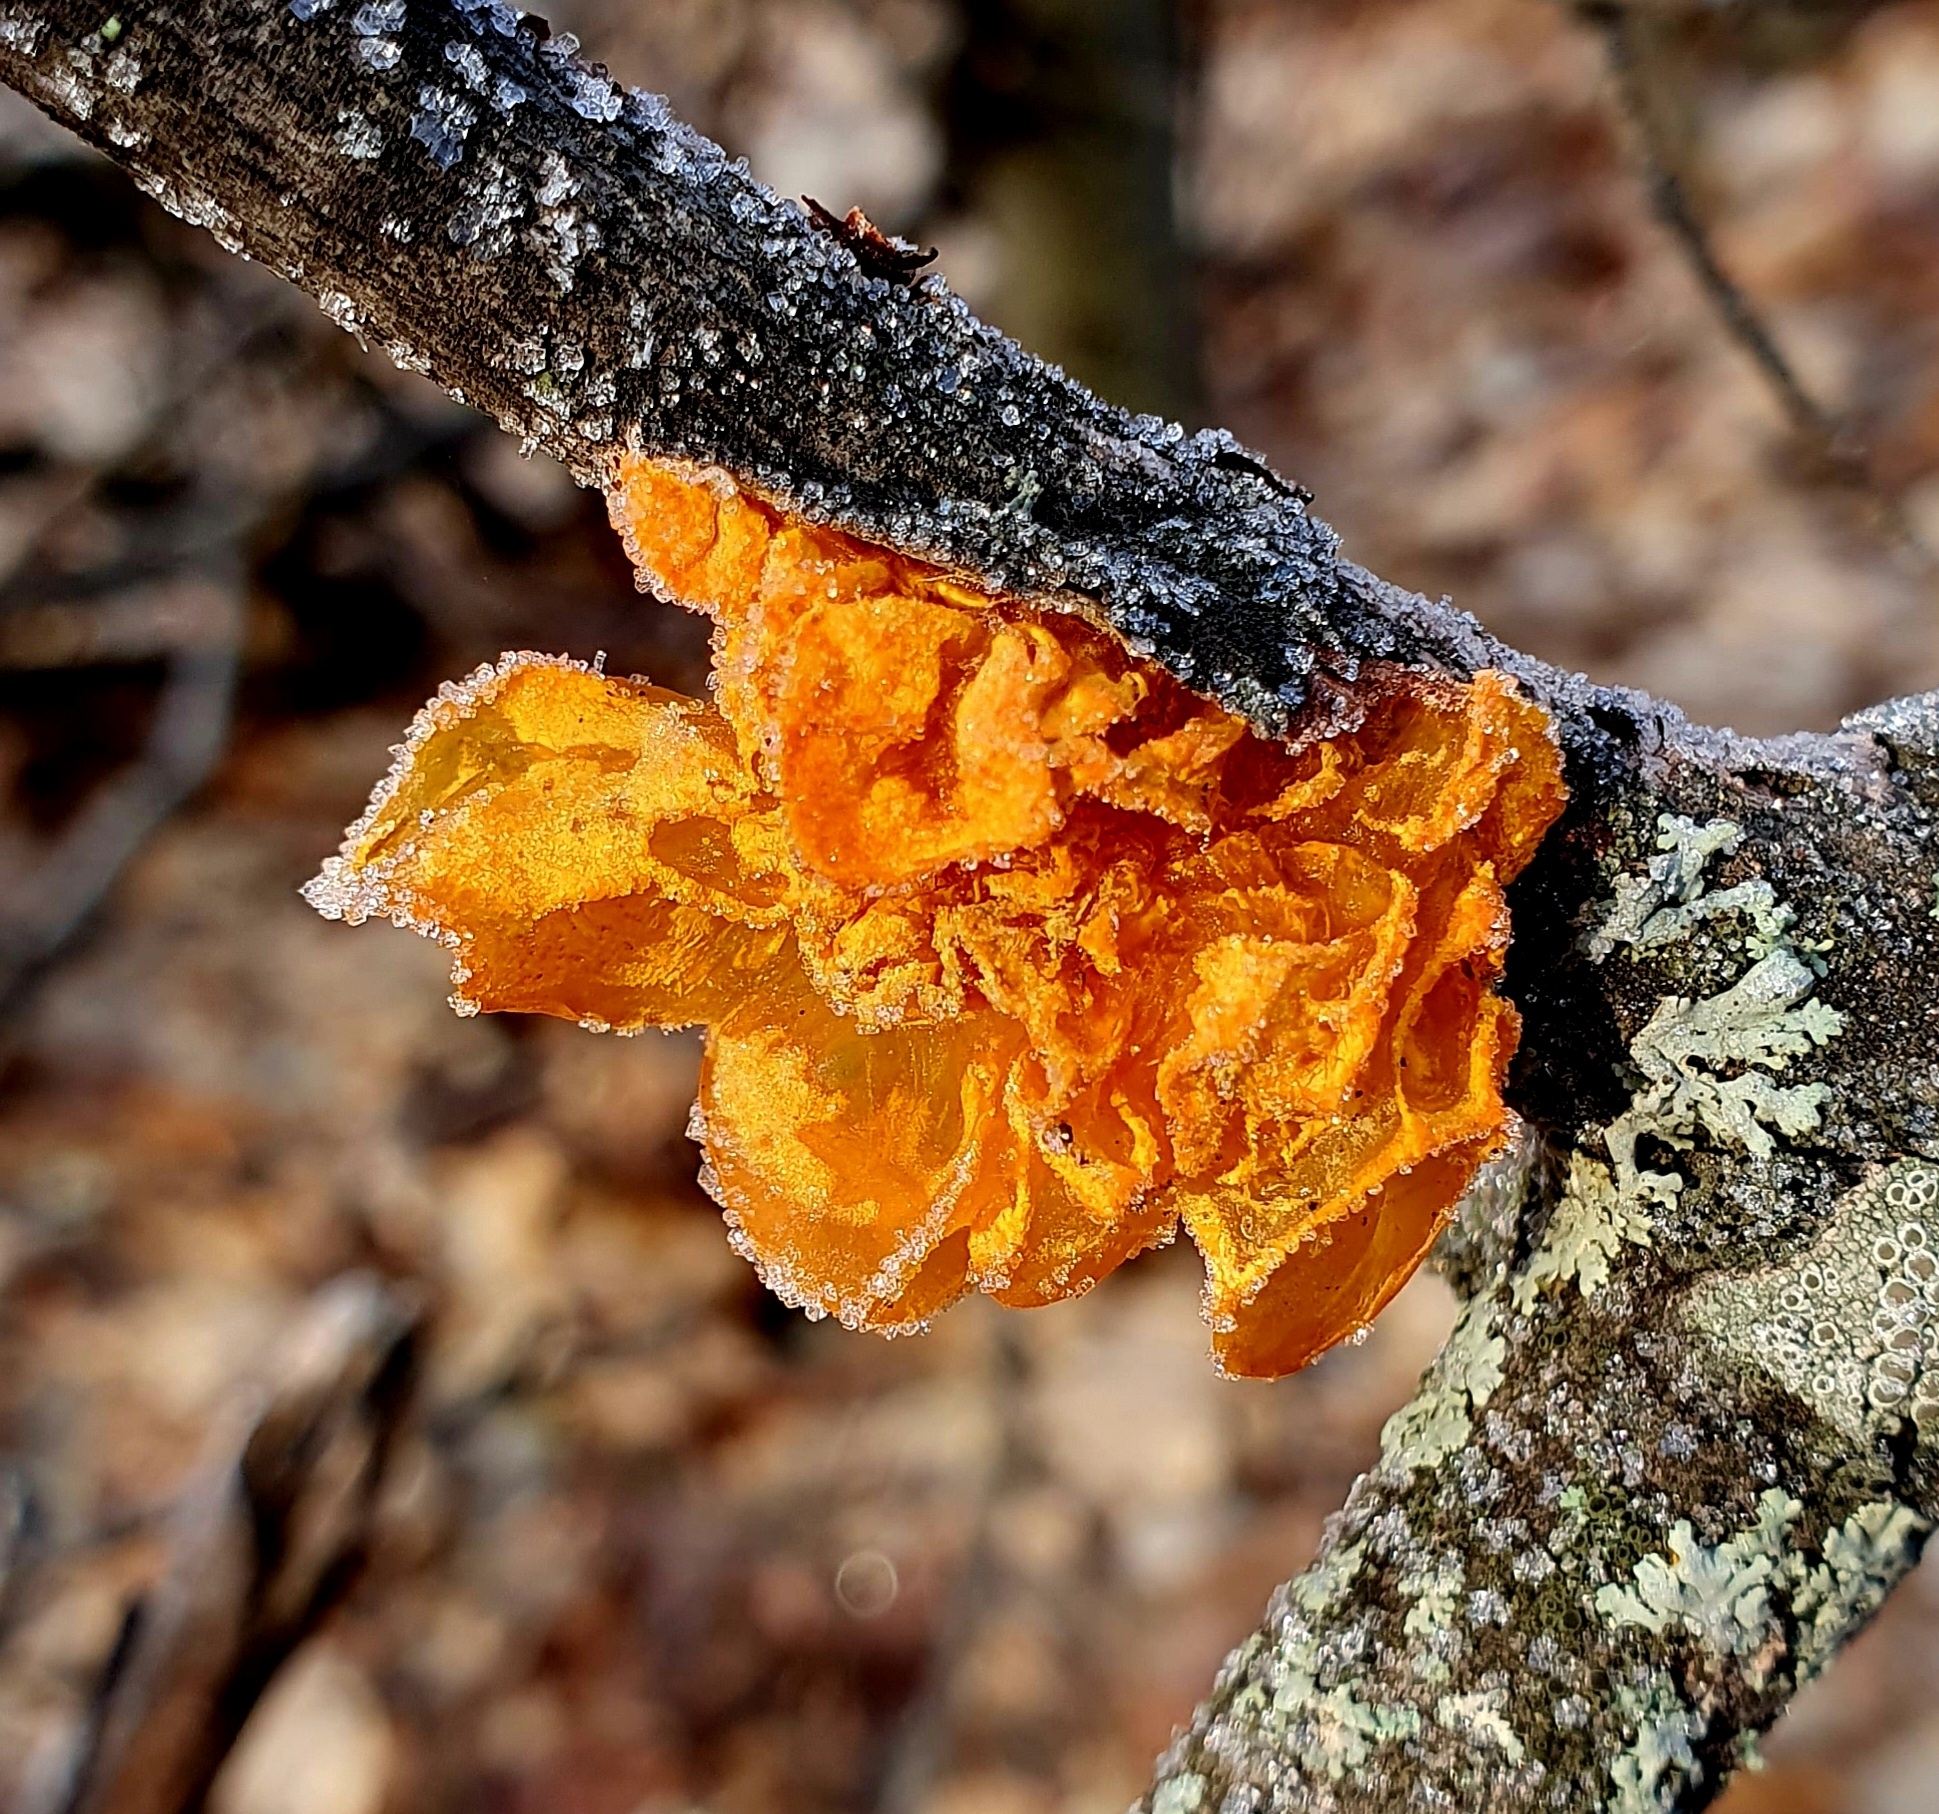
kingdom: Fungi
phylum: Basidiomycota
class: Tremellomycetes
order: Tremellales
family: Tremellaceae
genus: Tremella
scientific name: Tremella mesenterica
